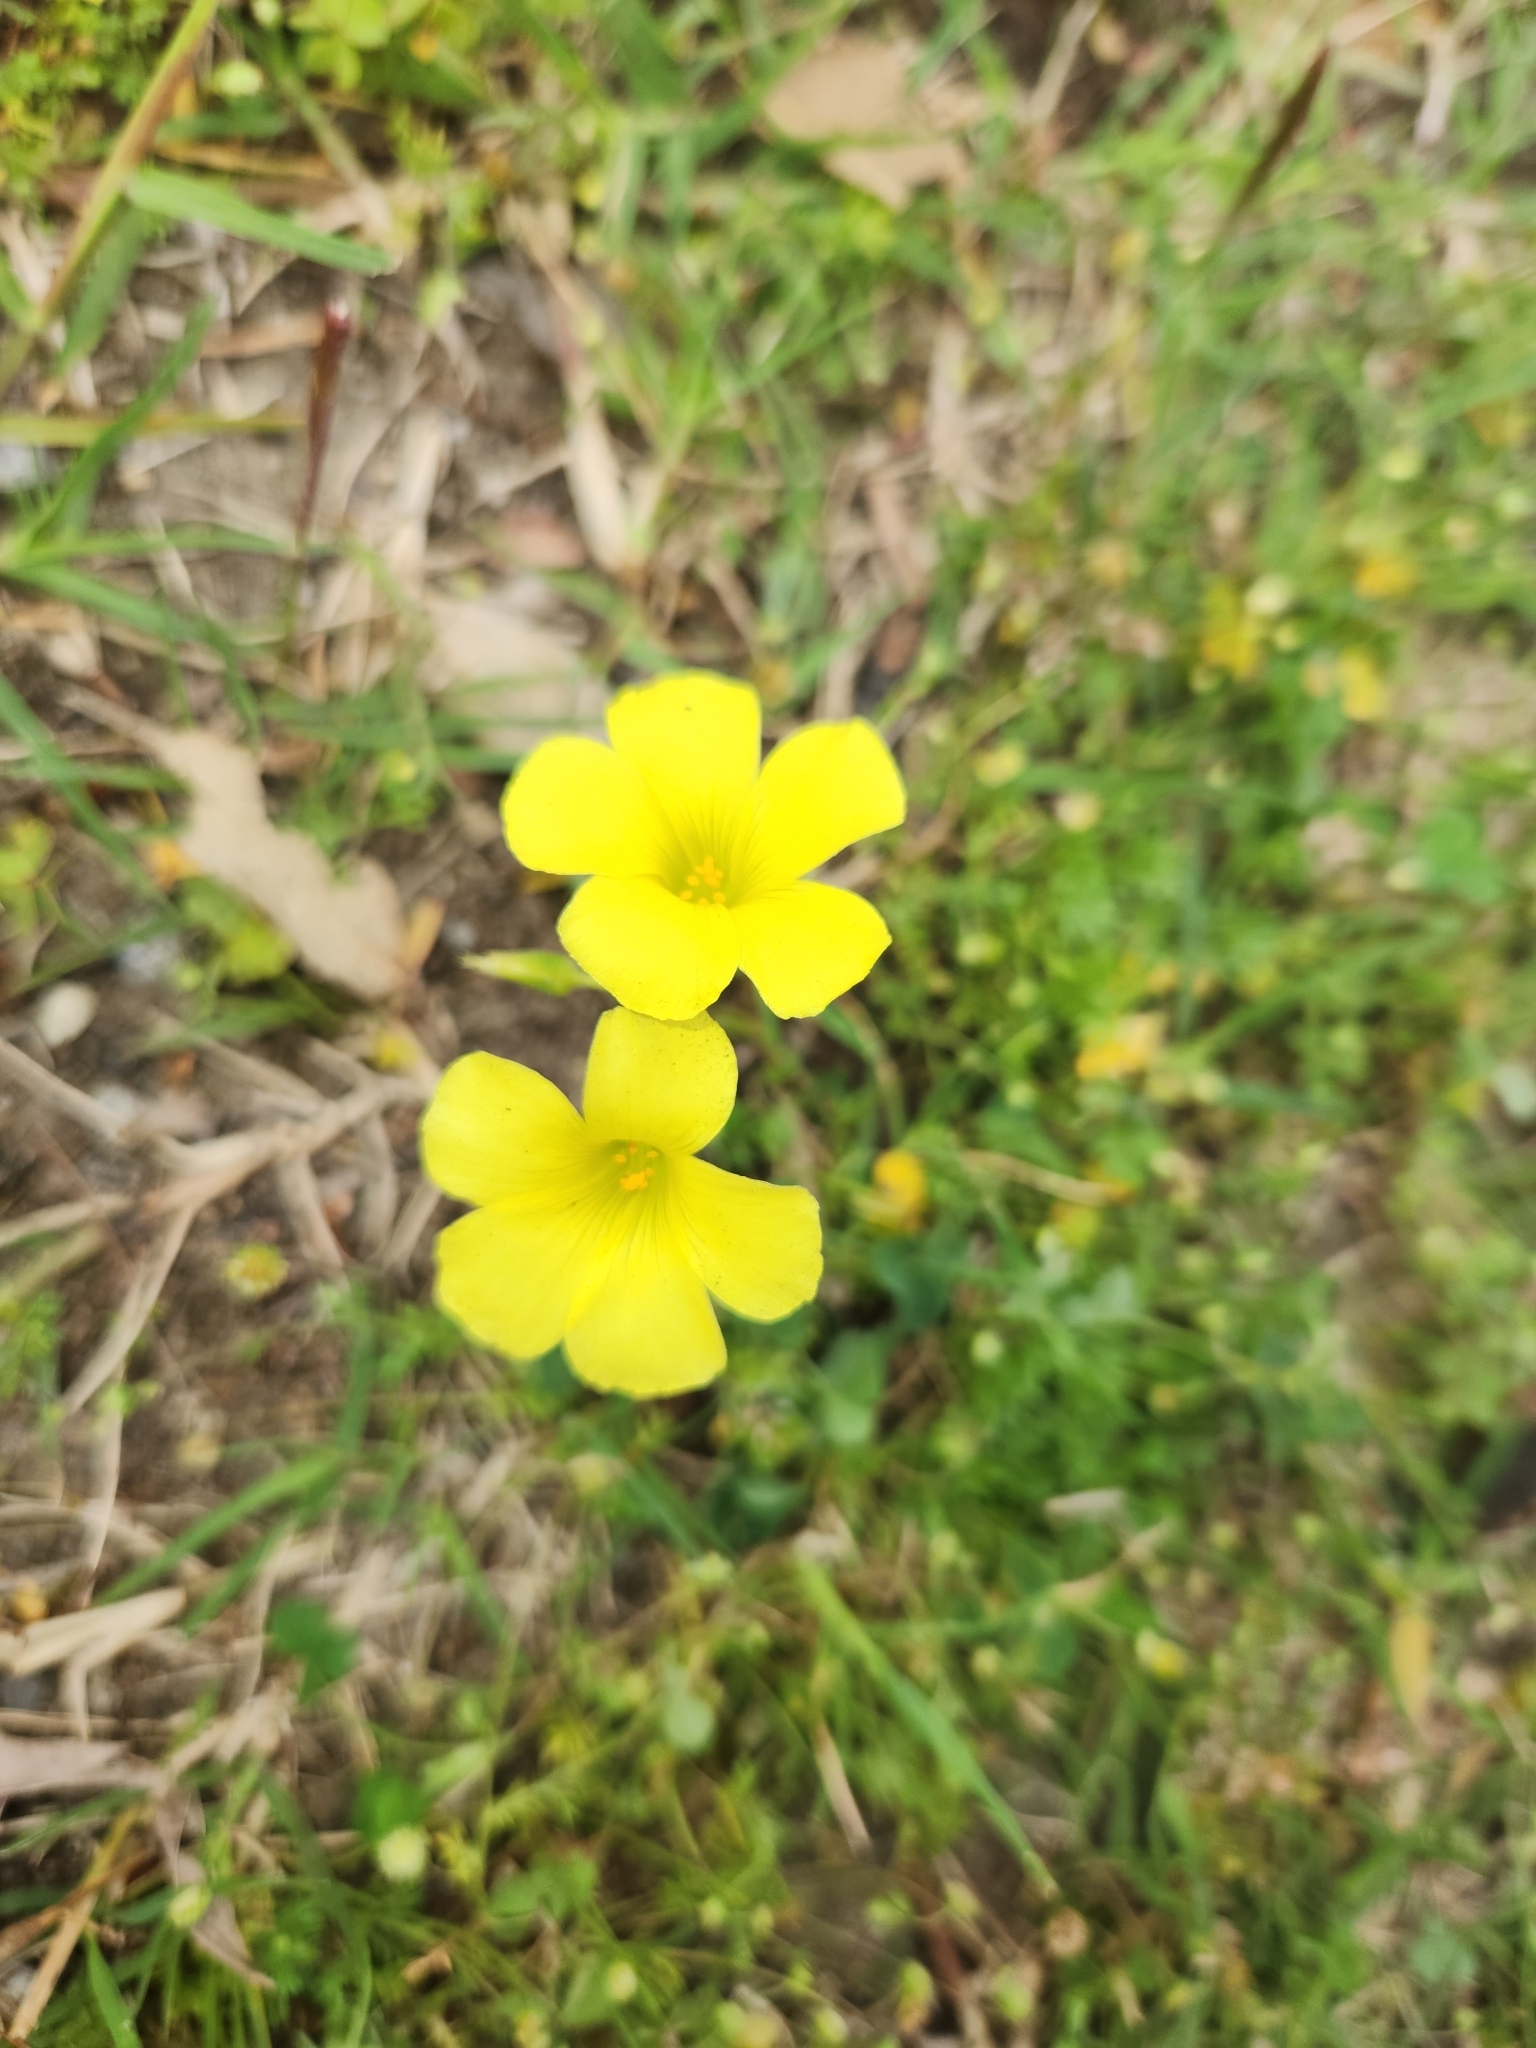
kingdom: Plantae
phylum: Tracheophyta
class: Magnoliopsida
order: Oxalidales
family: Oxalidaceae
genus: Oxalis
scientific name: Oxalis pes-caprae
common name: Bermuda-buttercup
